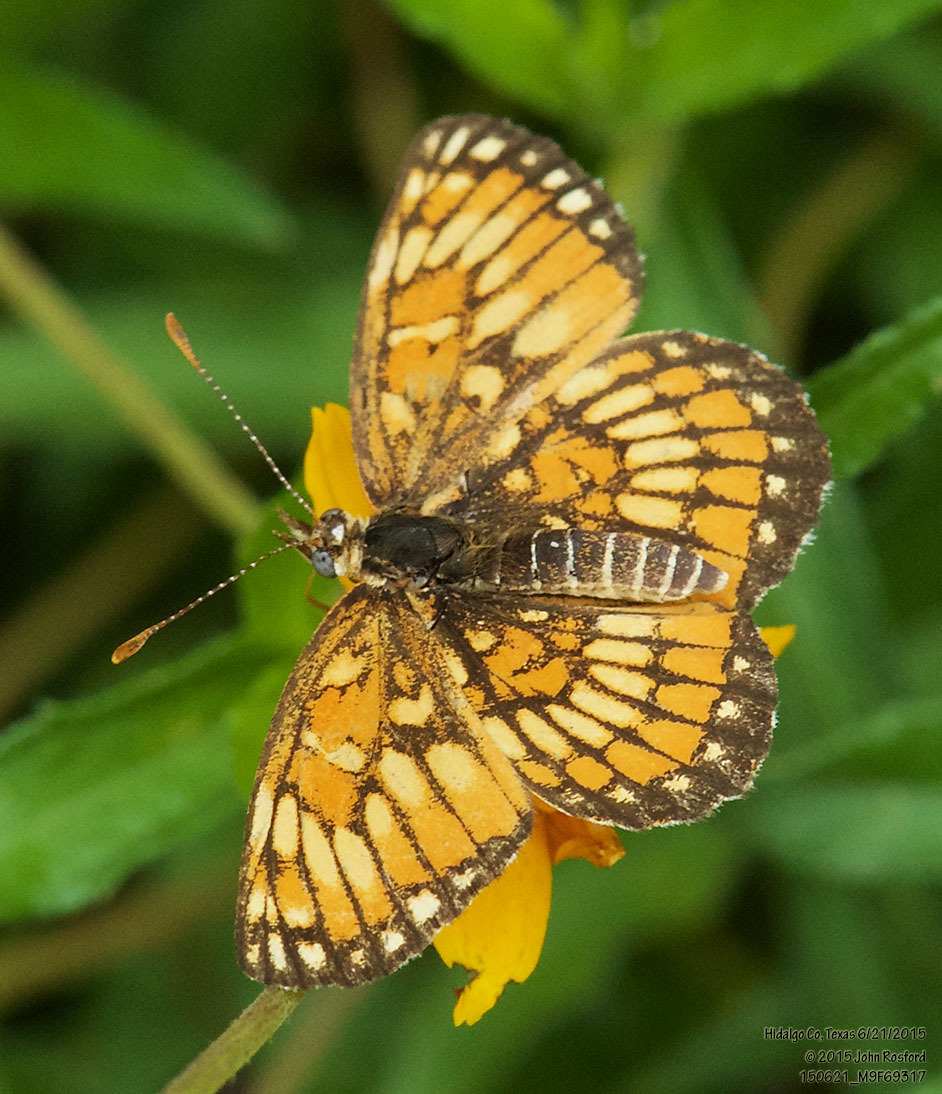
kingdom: Animalia
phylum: Arthropoda
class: Insecta
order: Lepidoptera
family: Nymphalidae
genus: Thessalia
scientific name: Thessalia theona
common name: Nymphalid moth
